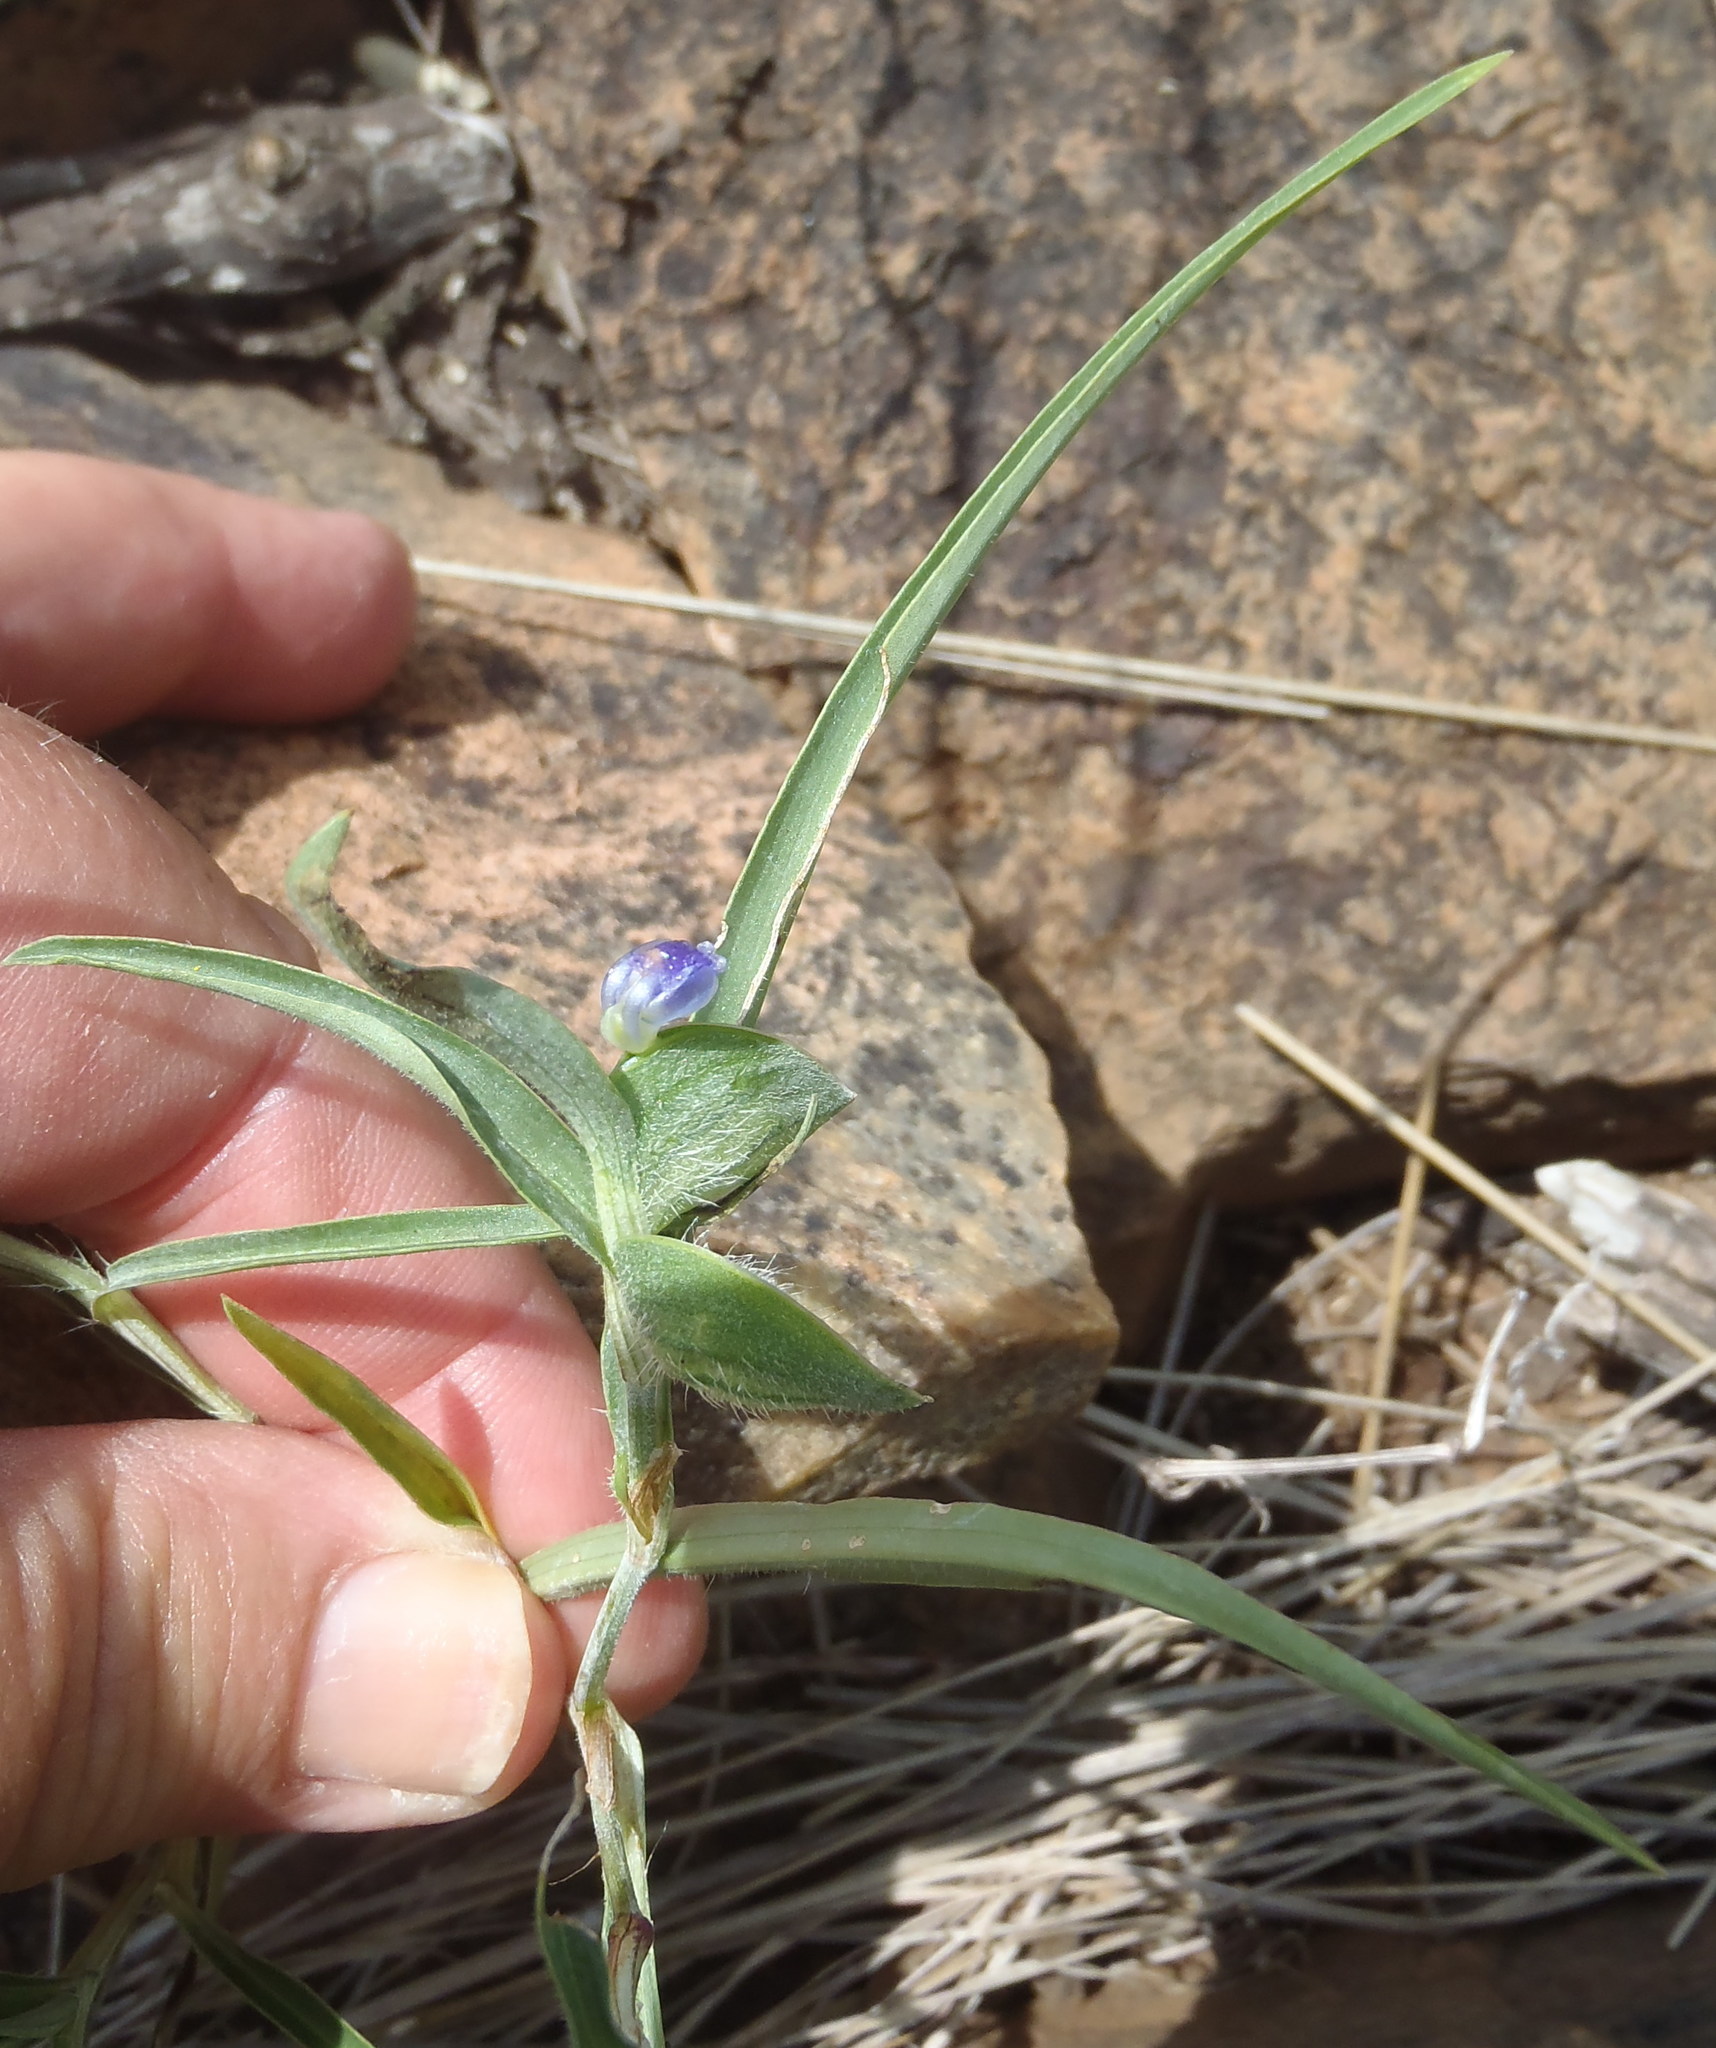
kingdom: Plantae
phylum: Tracheophyta
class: Liliopsida
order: Commelinales
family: Commelinaceae
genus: Commelina
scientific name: Commelina erecta
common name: Blousel blommetjie
